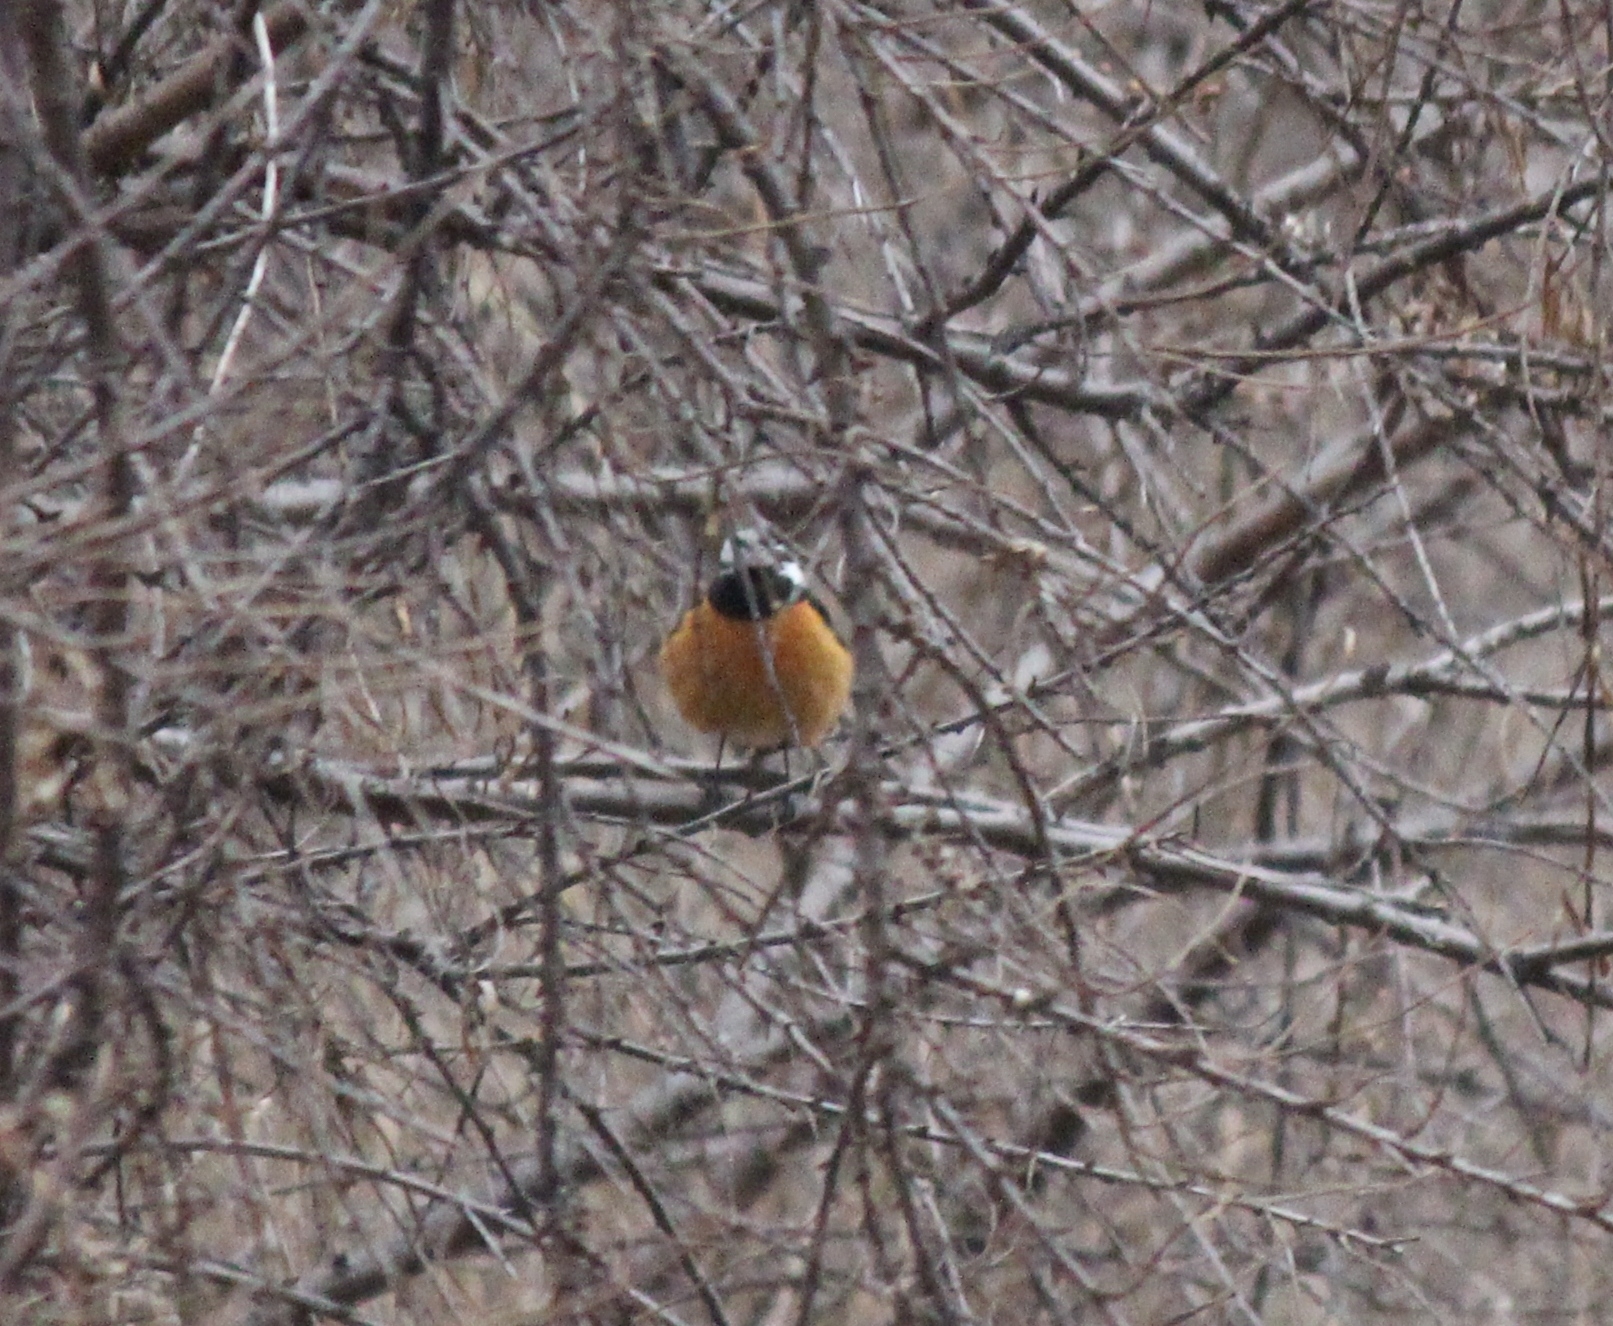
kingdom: Animalia
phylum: Chordata
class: Aves
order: Passeriformes
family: Muscicapidae
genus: Phoenicurus
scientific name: Phoenicurus auroreus
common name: Daurian redstart
